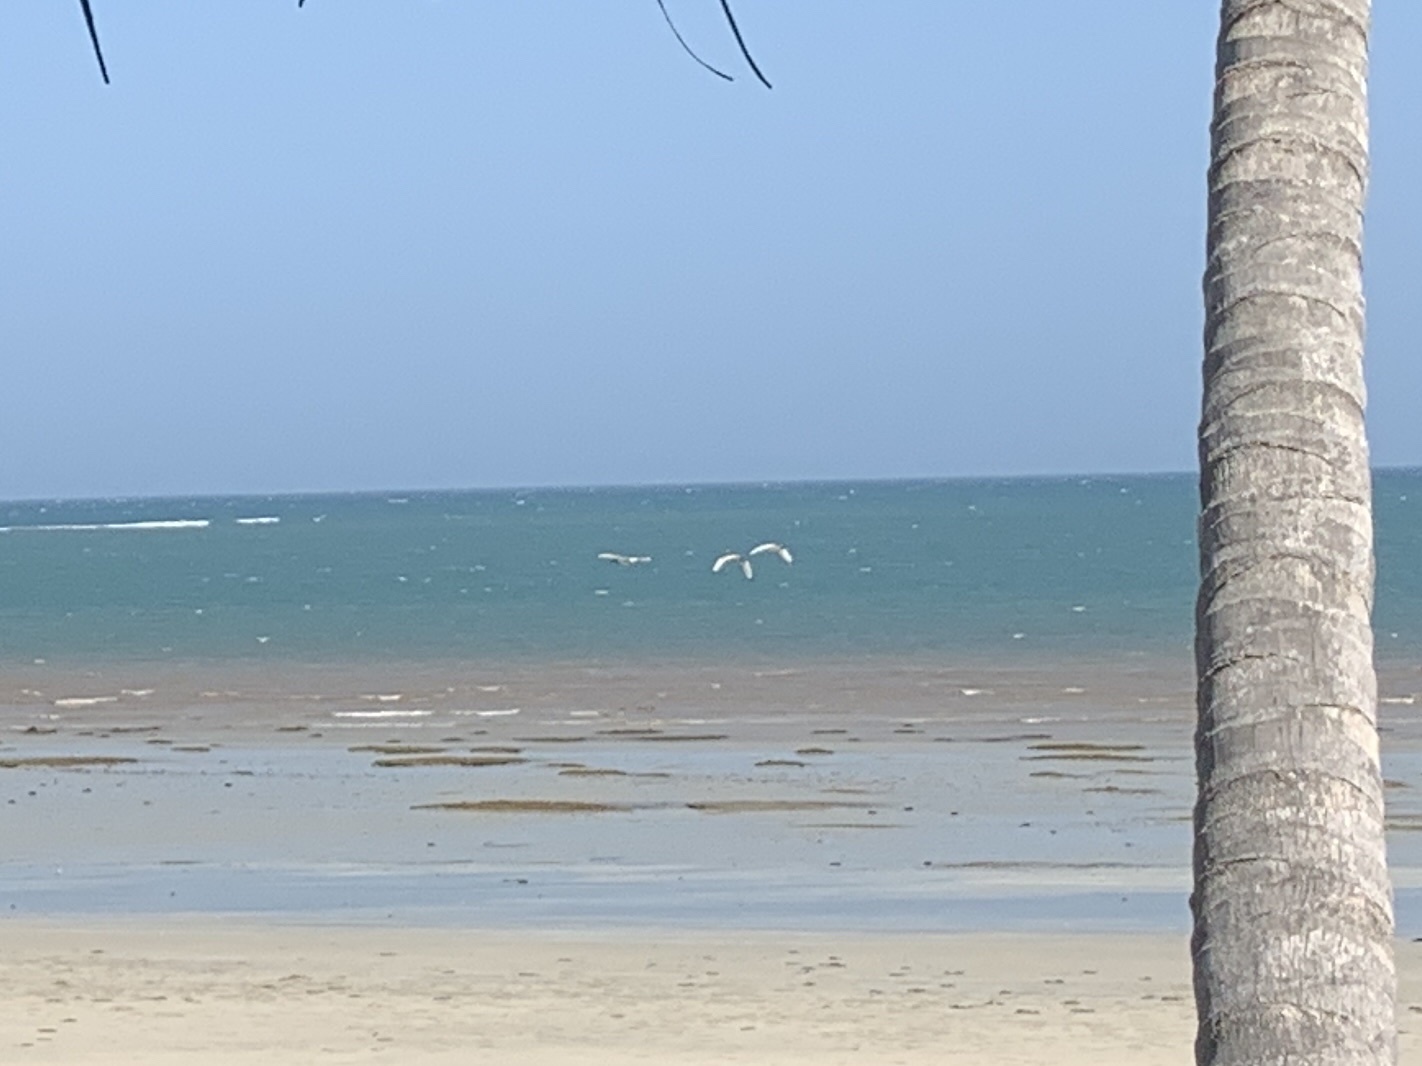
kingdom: Animalia
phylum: Chordata
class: Aves
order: Pelecaniformes
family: Threskiornithidae
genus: Threskiornis
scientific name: Threskiornis aethiopicus
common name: Sacred ibis
